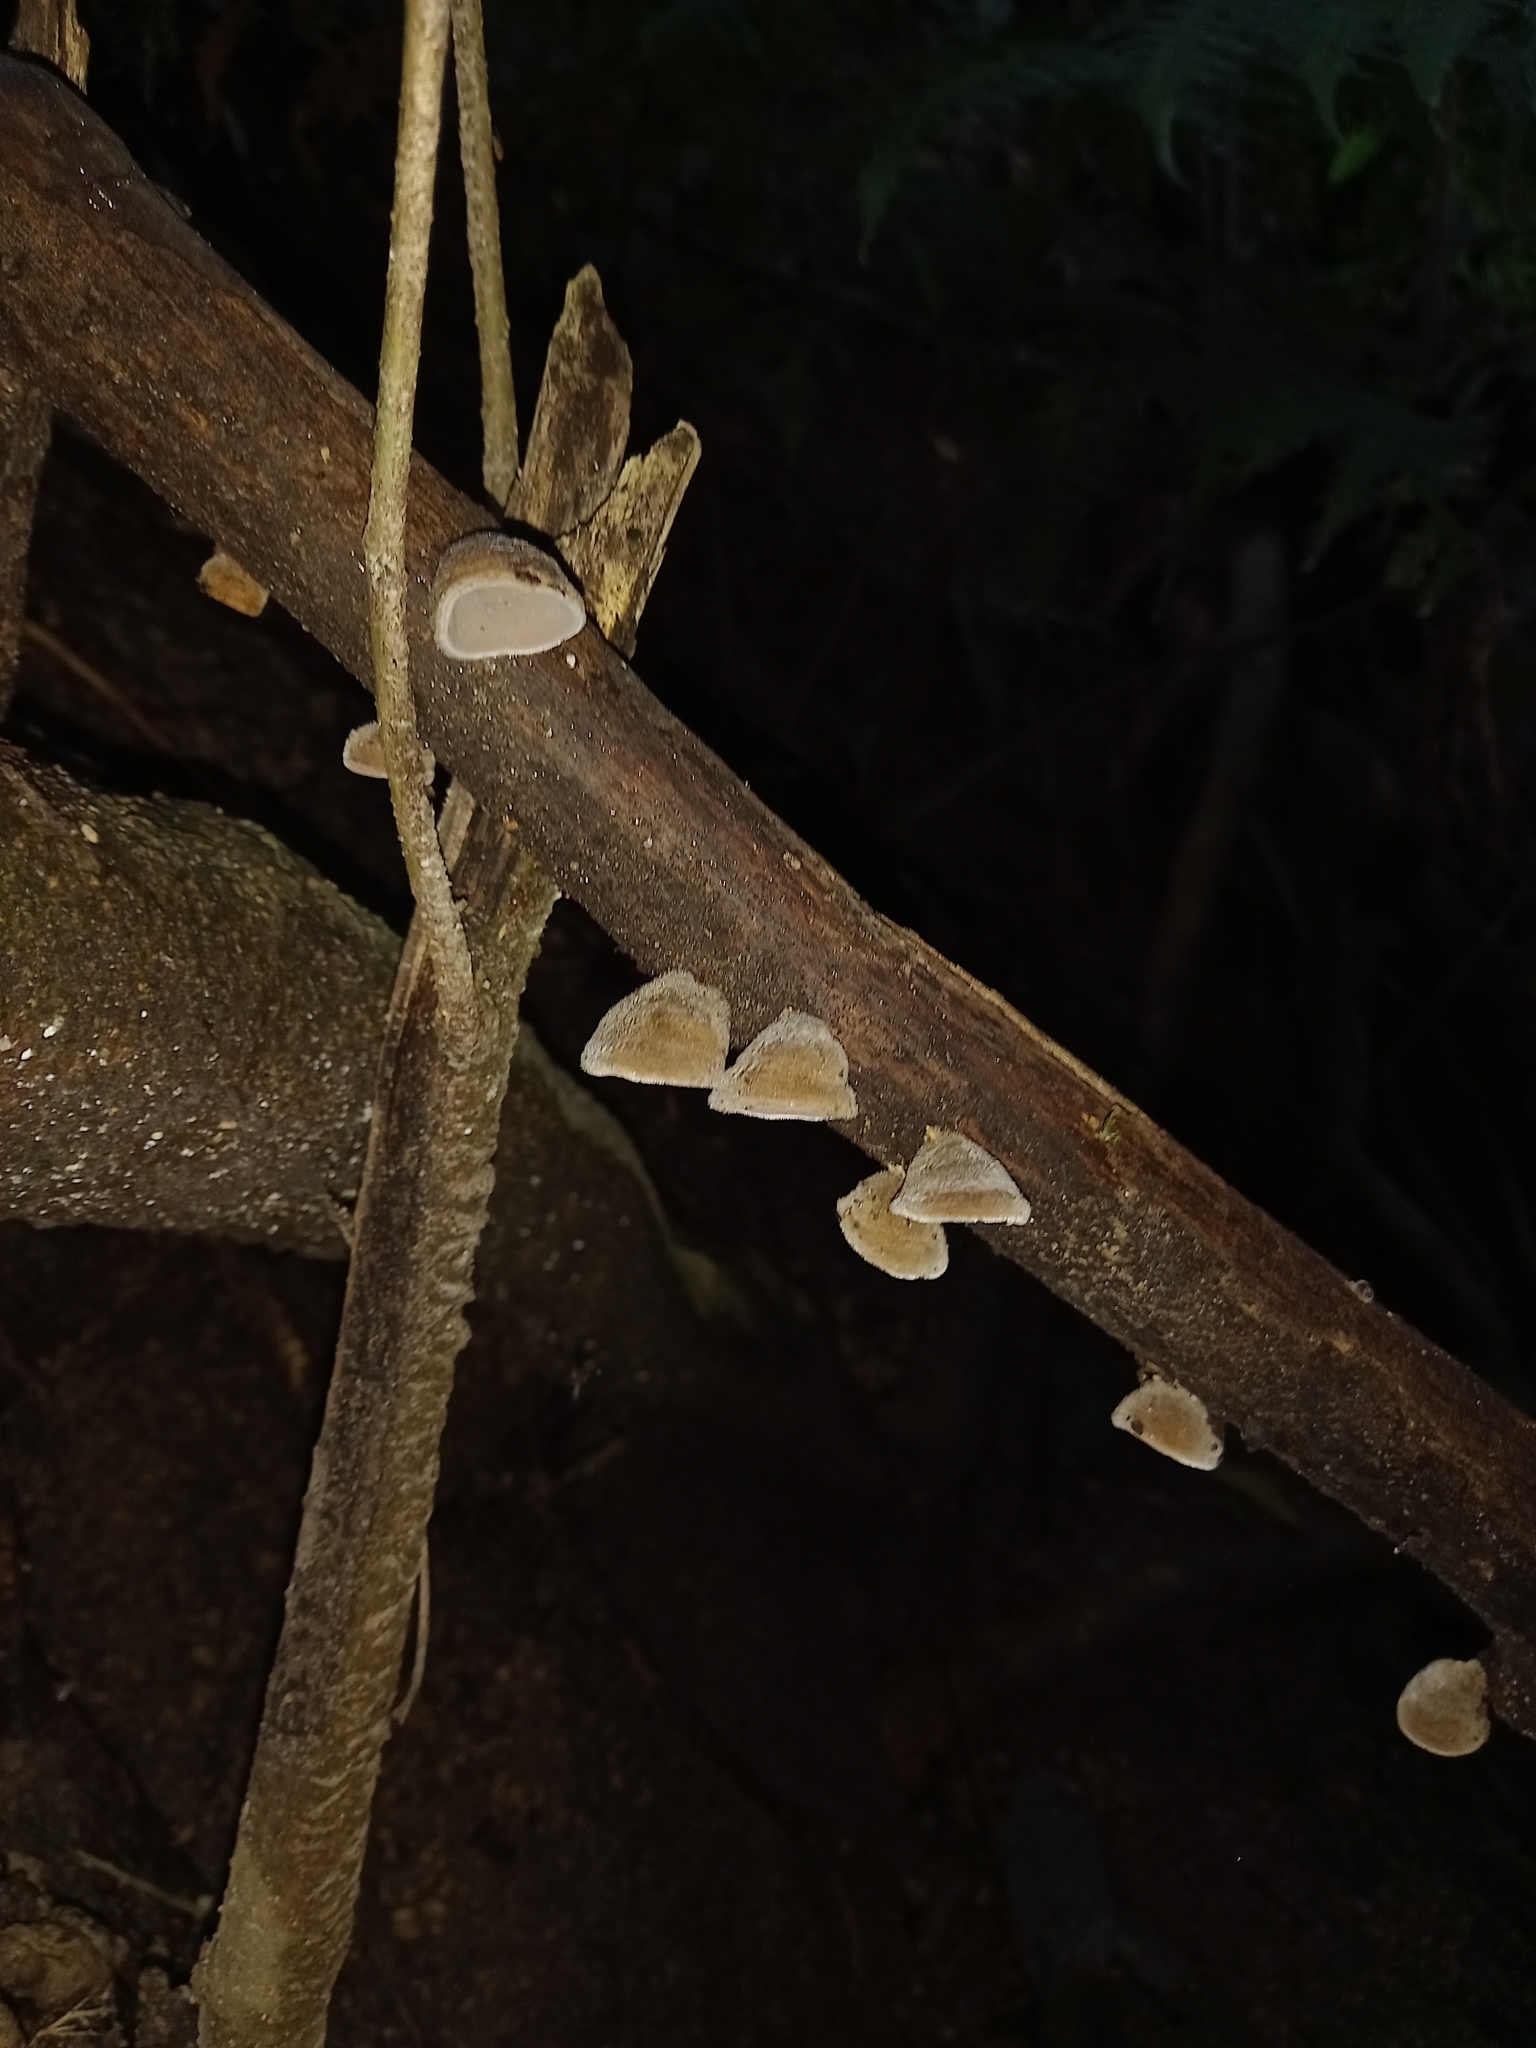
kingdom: Fungi
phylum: Basidiomycota
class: Agaricomycetes
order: Auriculariales
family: Auriculariaceae
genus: Auricularia
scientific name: Auricularia nigricans
